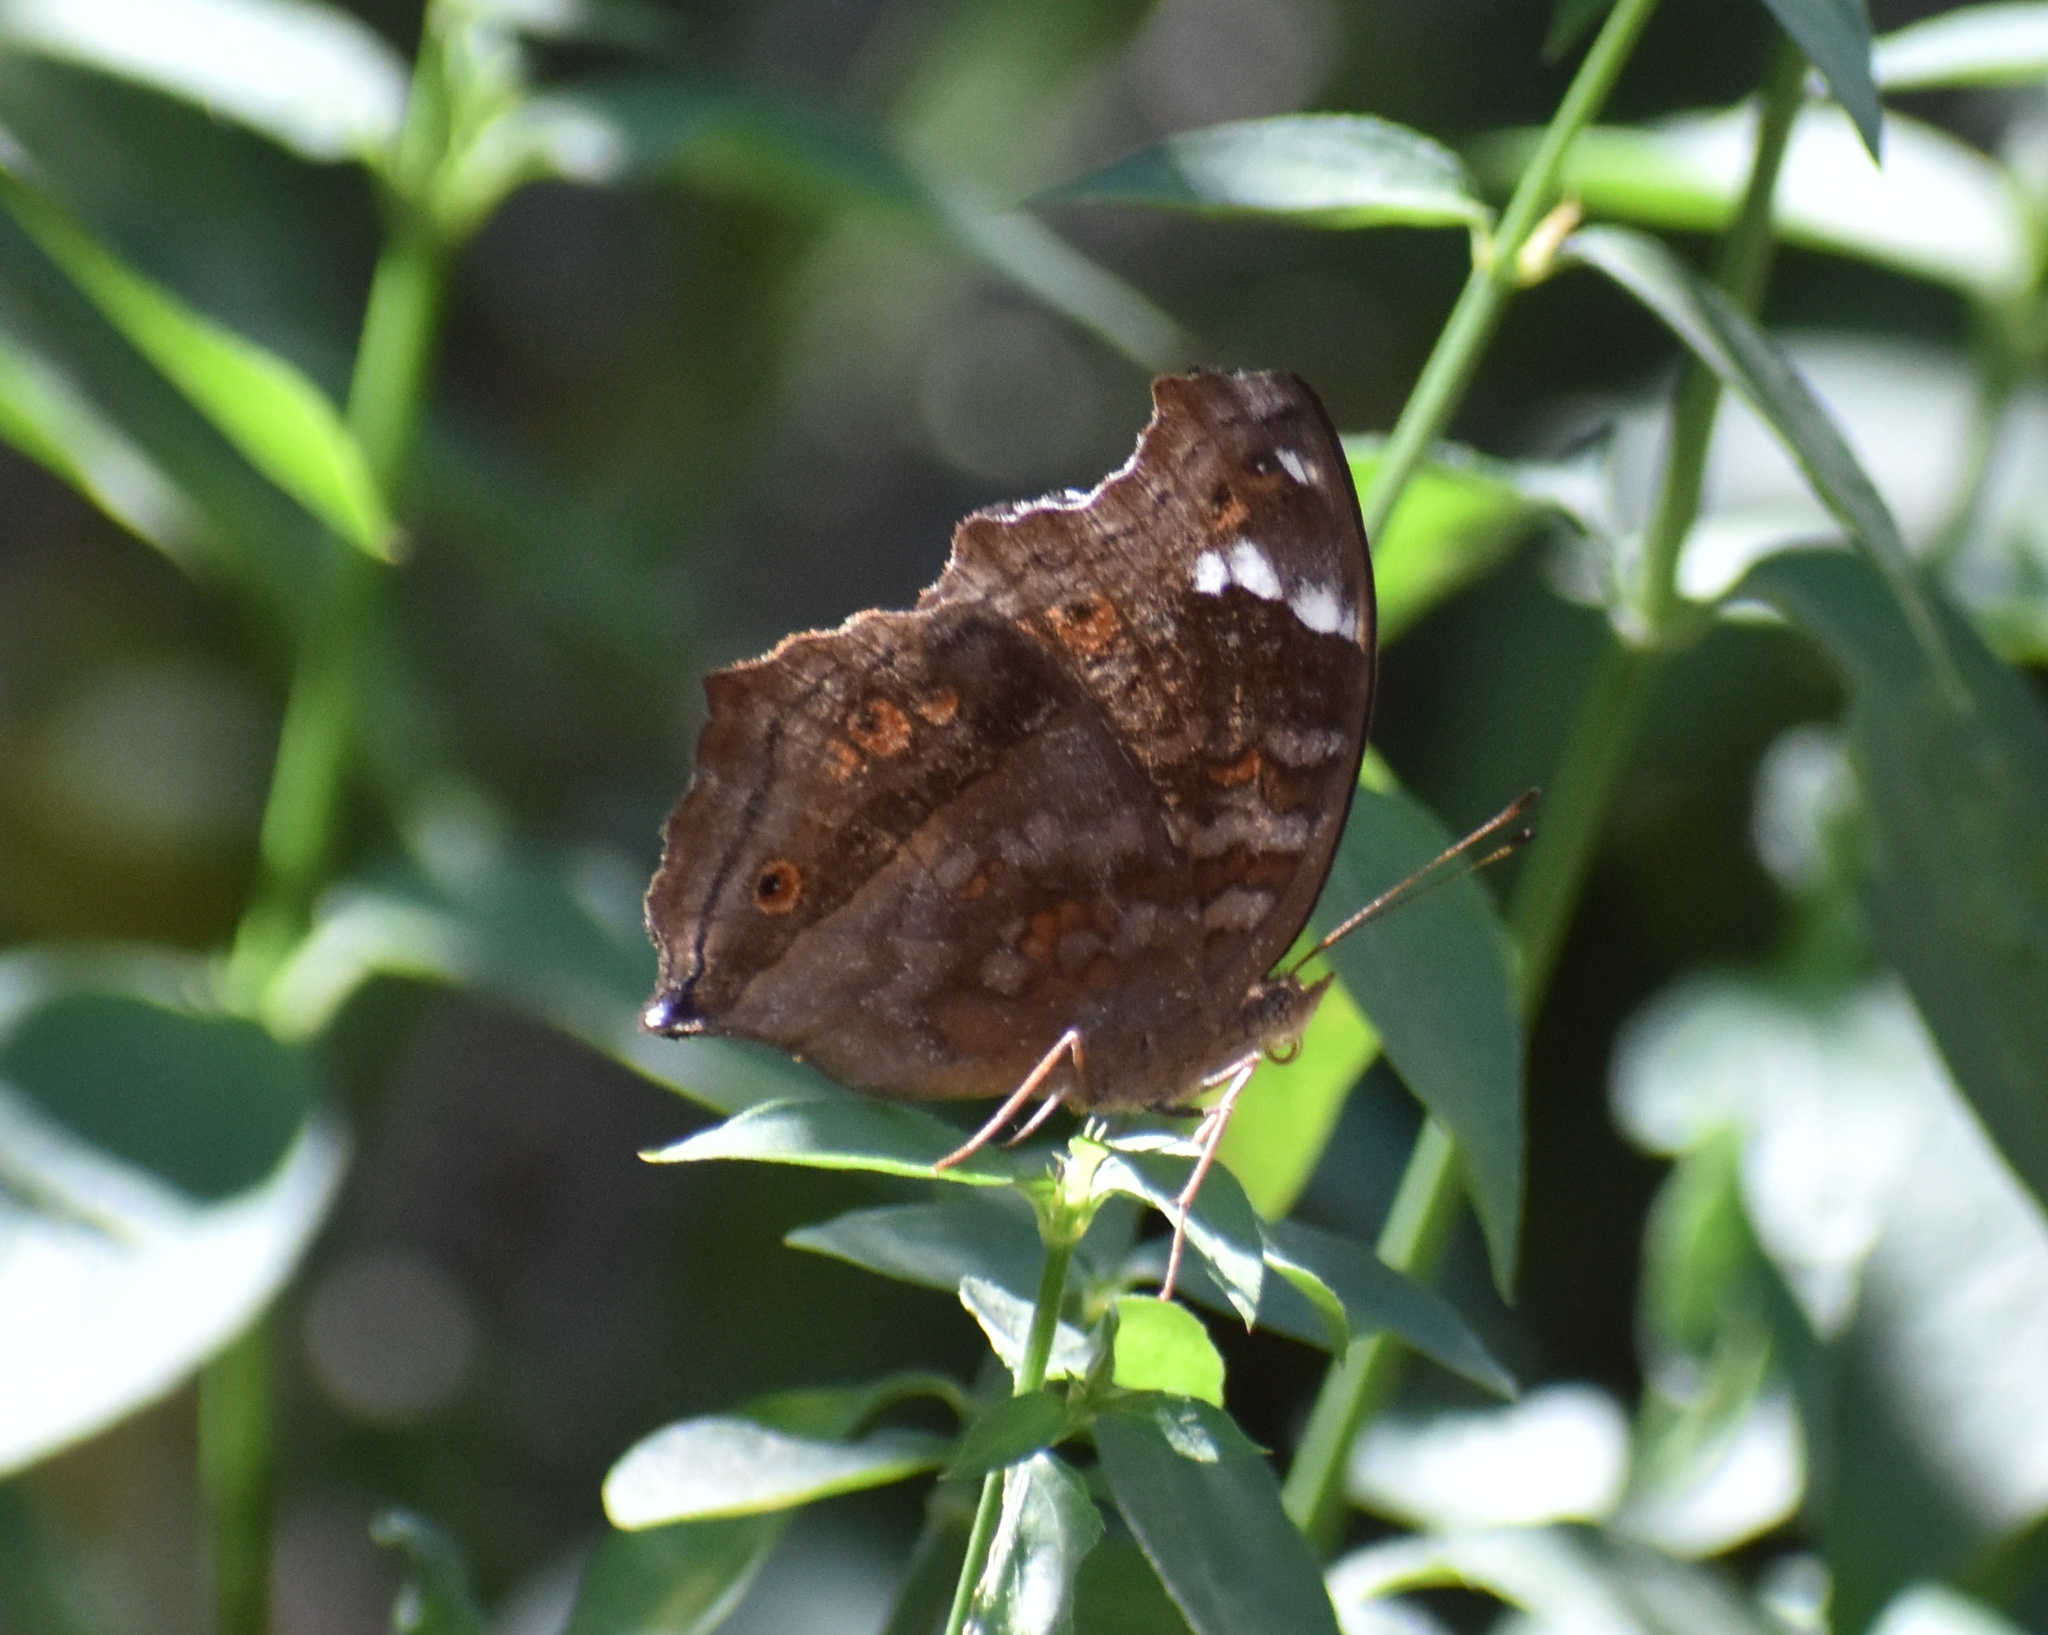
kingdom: Animalia
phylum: Arthropoda
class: Insecta
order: Lepidoptera
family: Nymphalidae
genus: Junonia
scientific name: Junonia natalica
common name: Brown pansy
